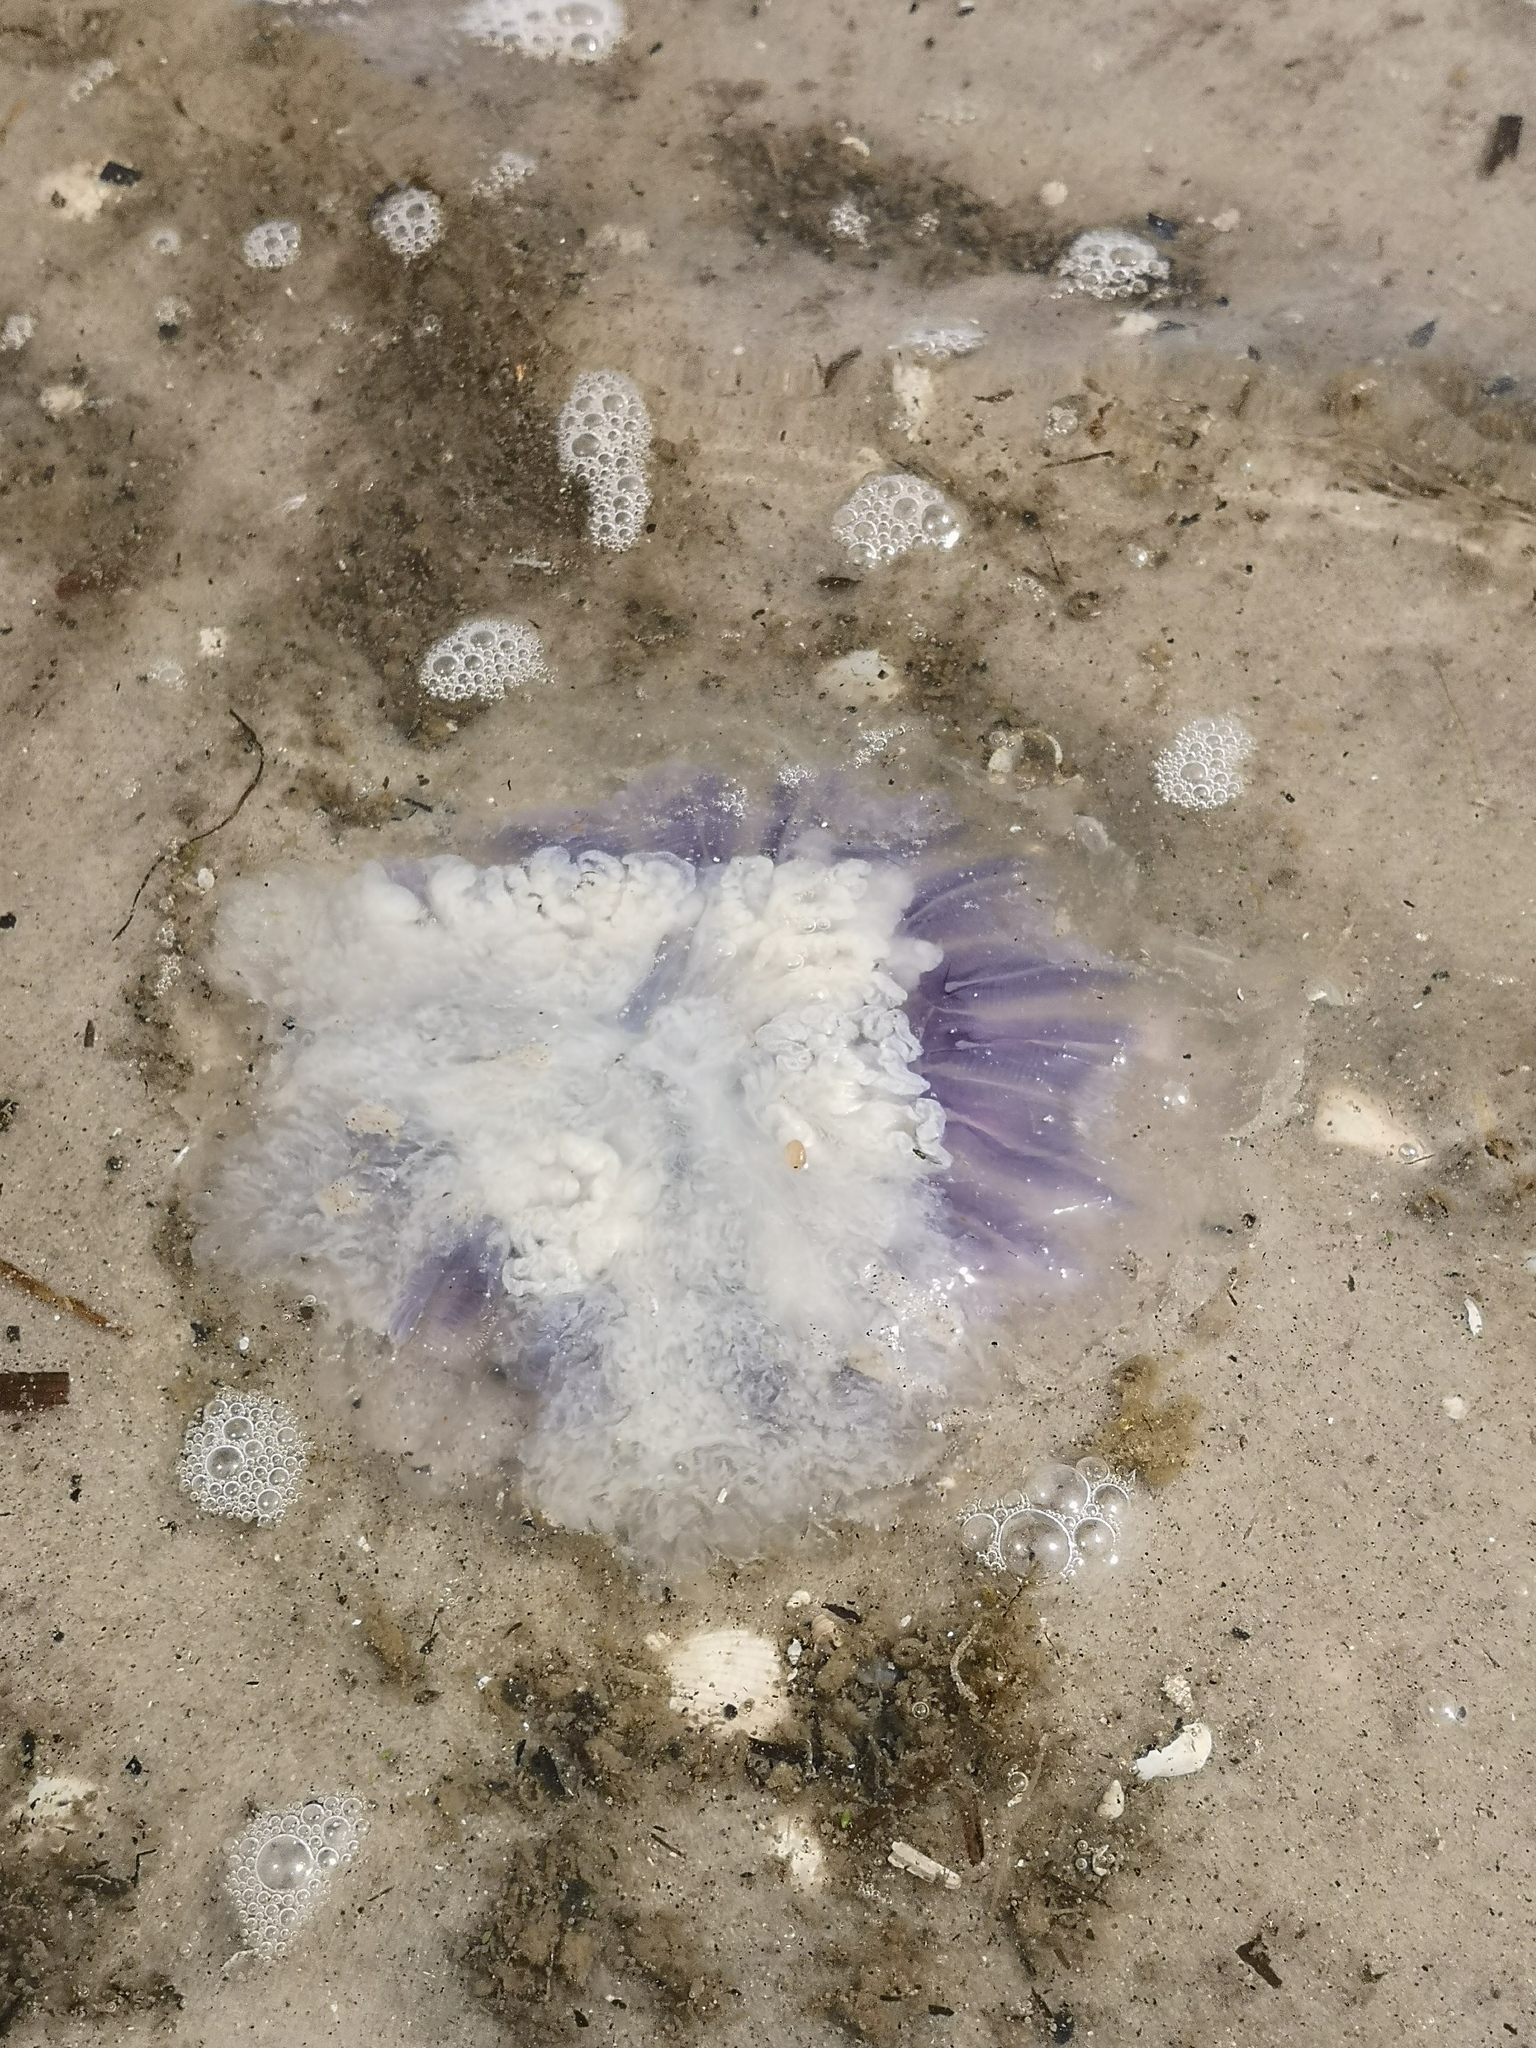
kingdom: Animalia
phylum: Cnidaria
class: Scyphozoa
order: Semaeostomeae
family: Cyaneidae
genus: Cyanea
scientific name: Cyanea lamarckii
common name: Blue jellyfish
